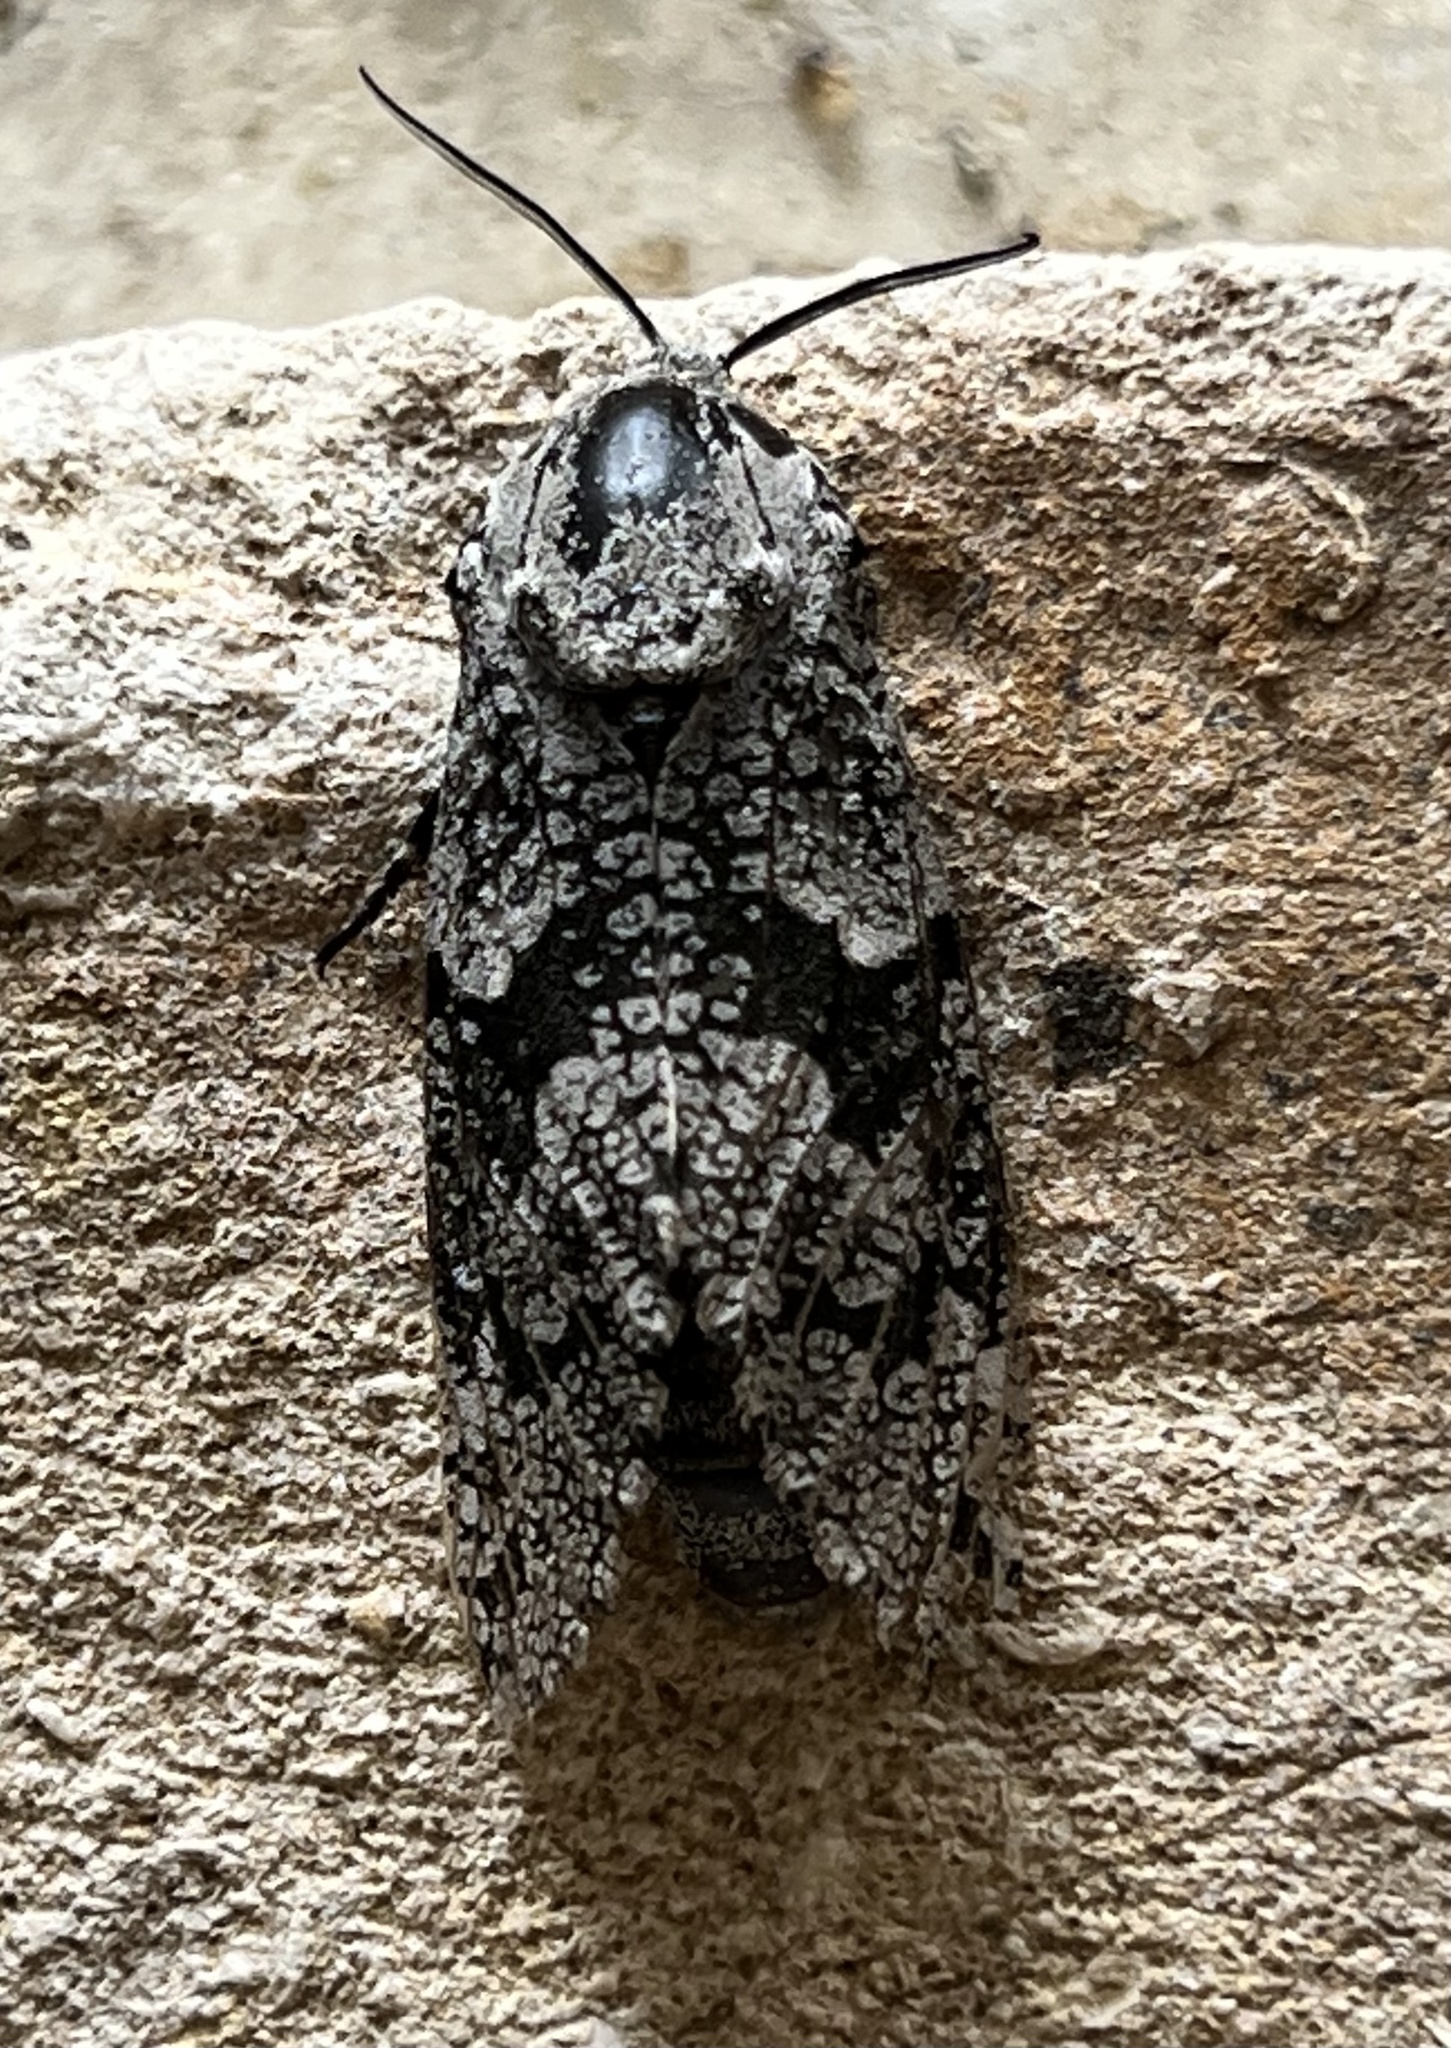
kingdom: Animalia
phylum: Arthropoda
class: Insecta
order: Lepidoptera
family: Cossidae
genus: Prionoxystus
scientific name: Prionoxystus robiniae
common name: Carpenterworm
